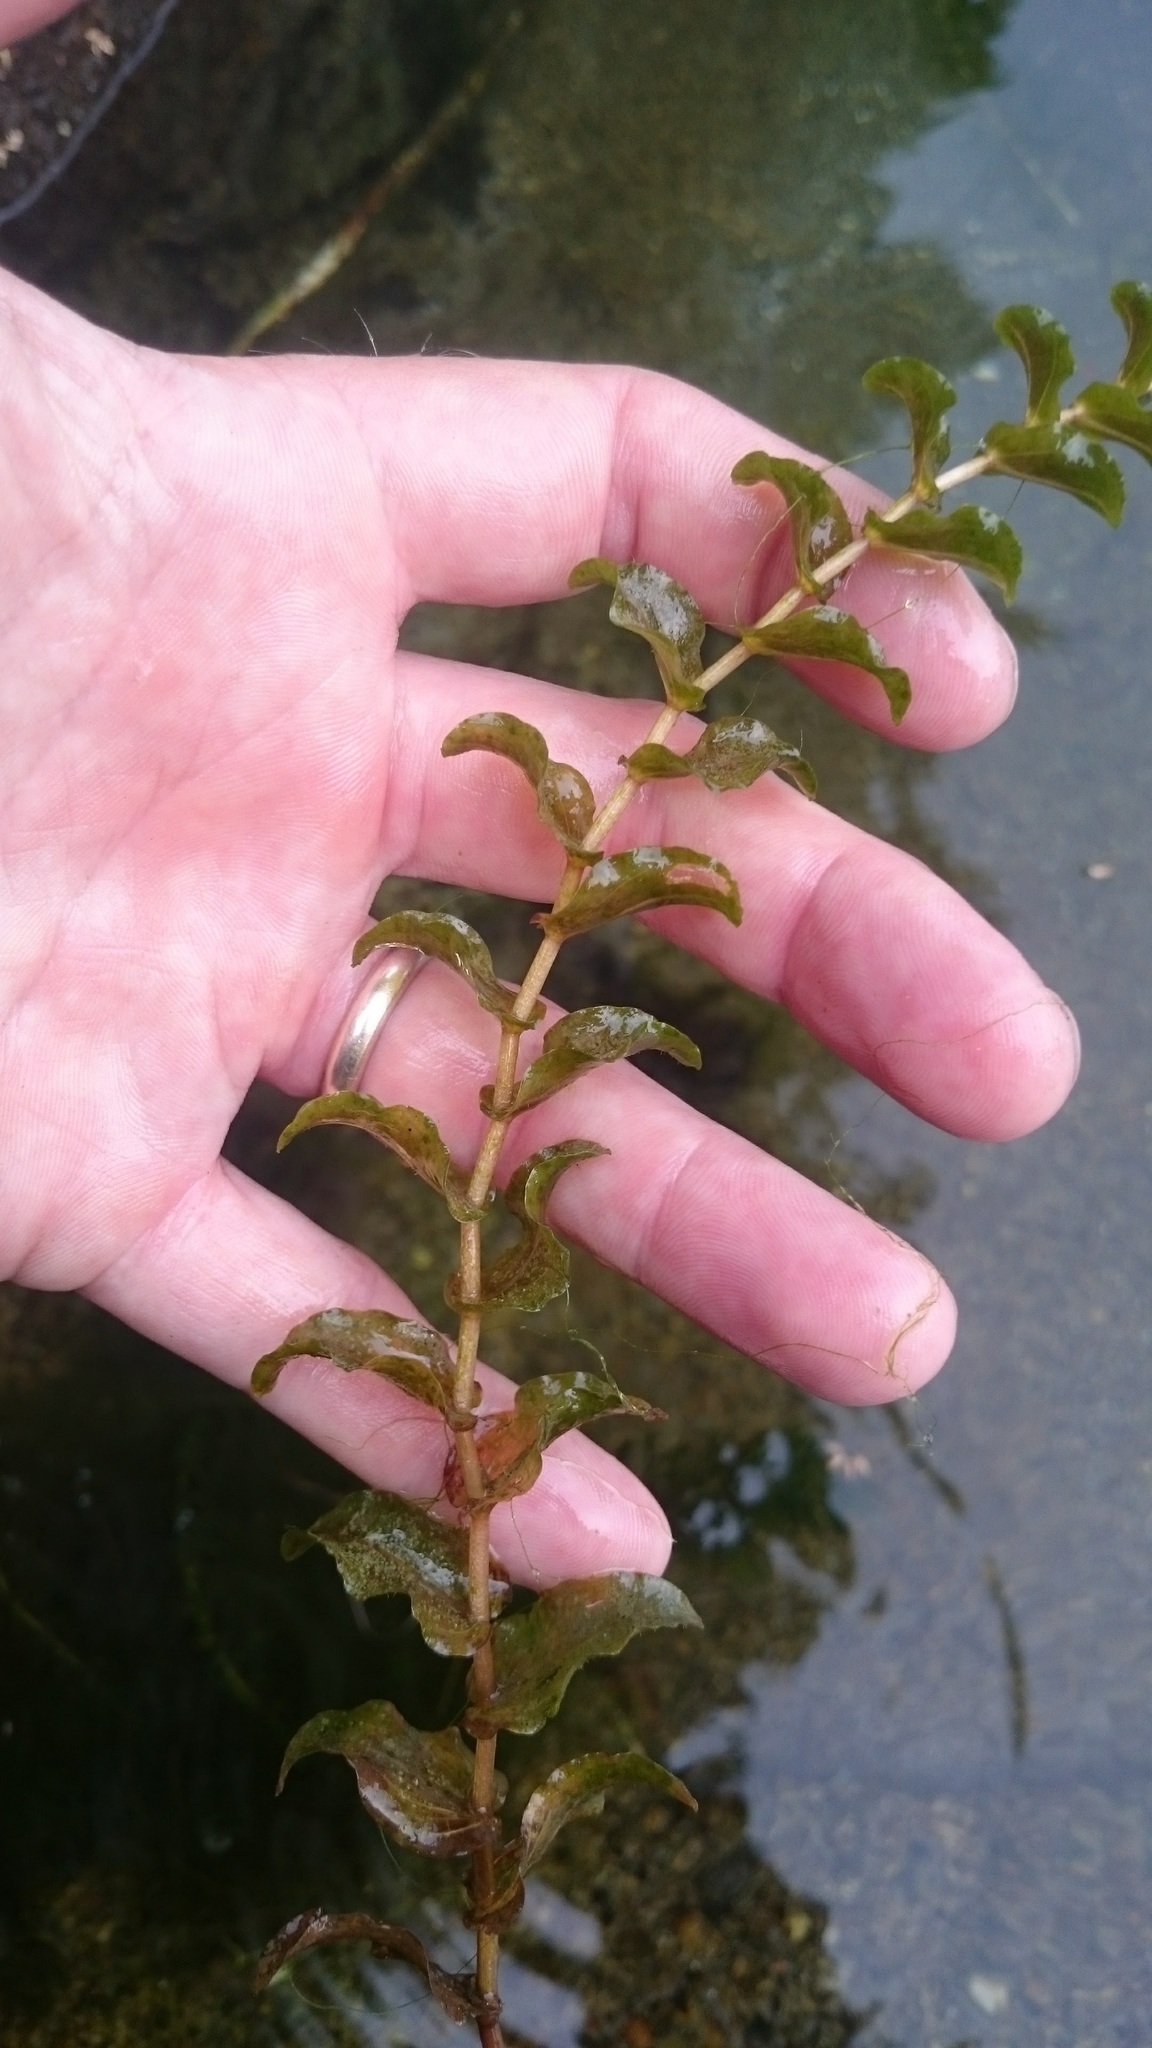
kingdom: Plantae
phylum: Tracheophyta
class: Liliopsida
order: Alismatales
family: Potamogetonaceae
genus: Potamogeton
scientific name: Potamogeton perfoliatus
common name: Perfoliate pondweed
